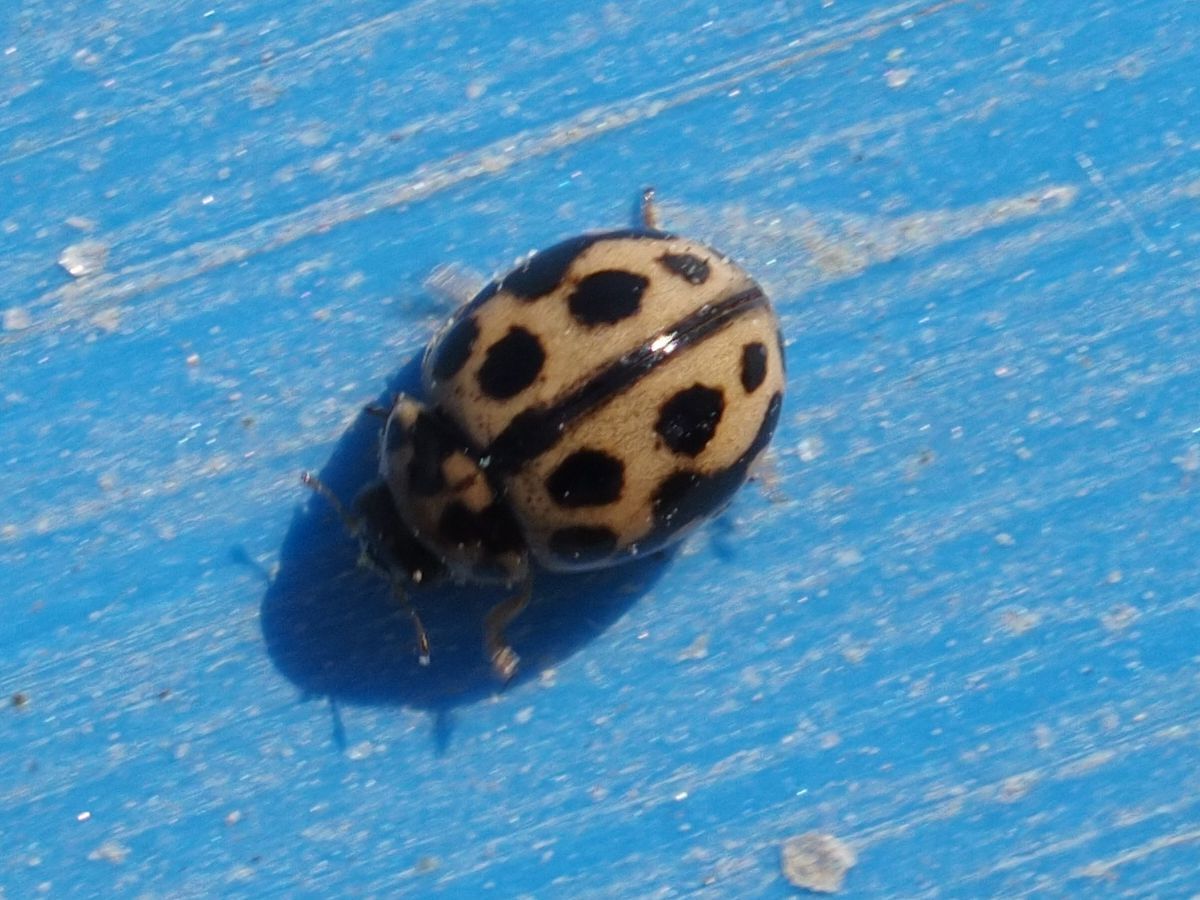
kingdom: Animalia
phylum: Arthropoda
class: Insecta
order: Coleoptera
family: Coccinellidae
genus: Tytthaspis
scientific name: Tytthaspis sedecimpunctata
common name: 16-spot ladybird
